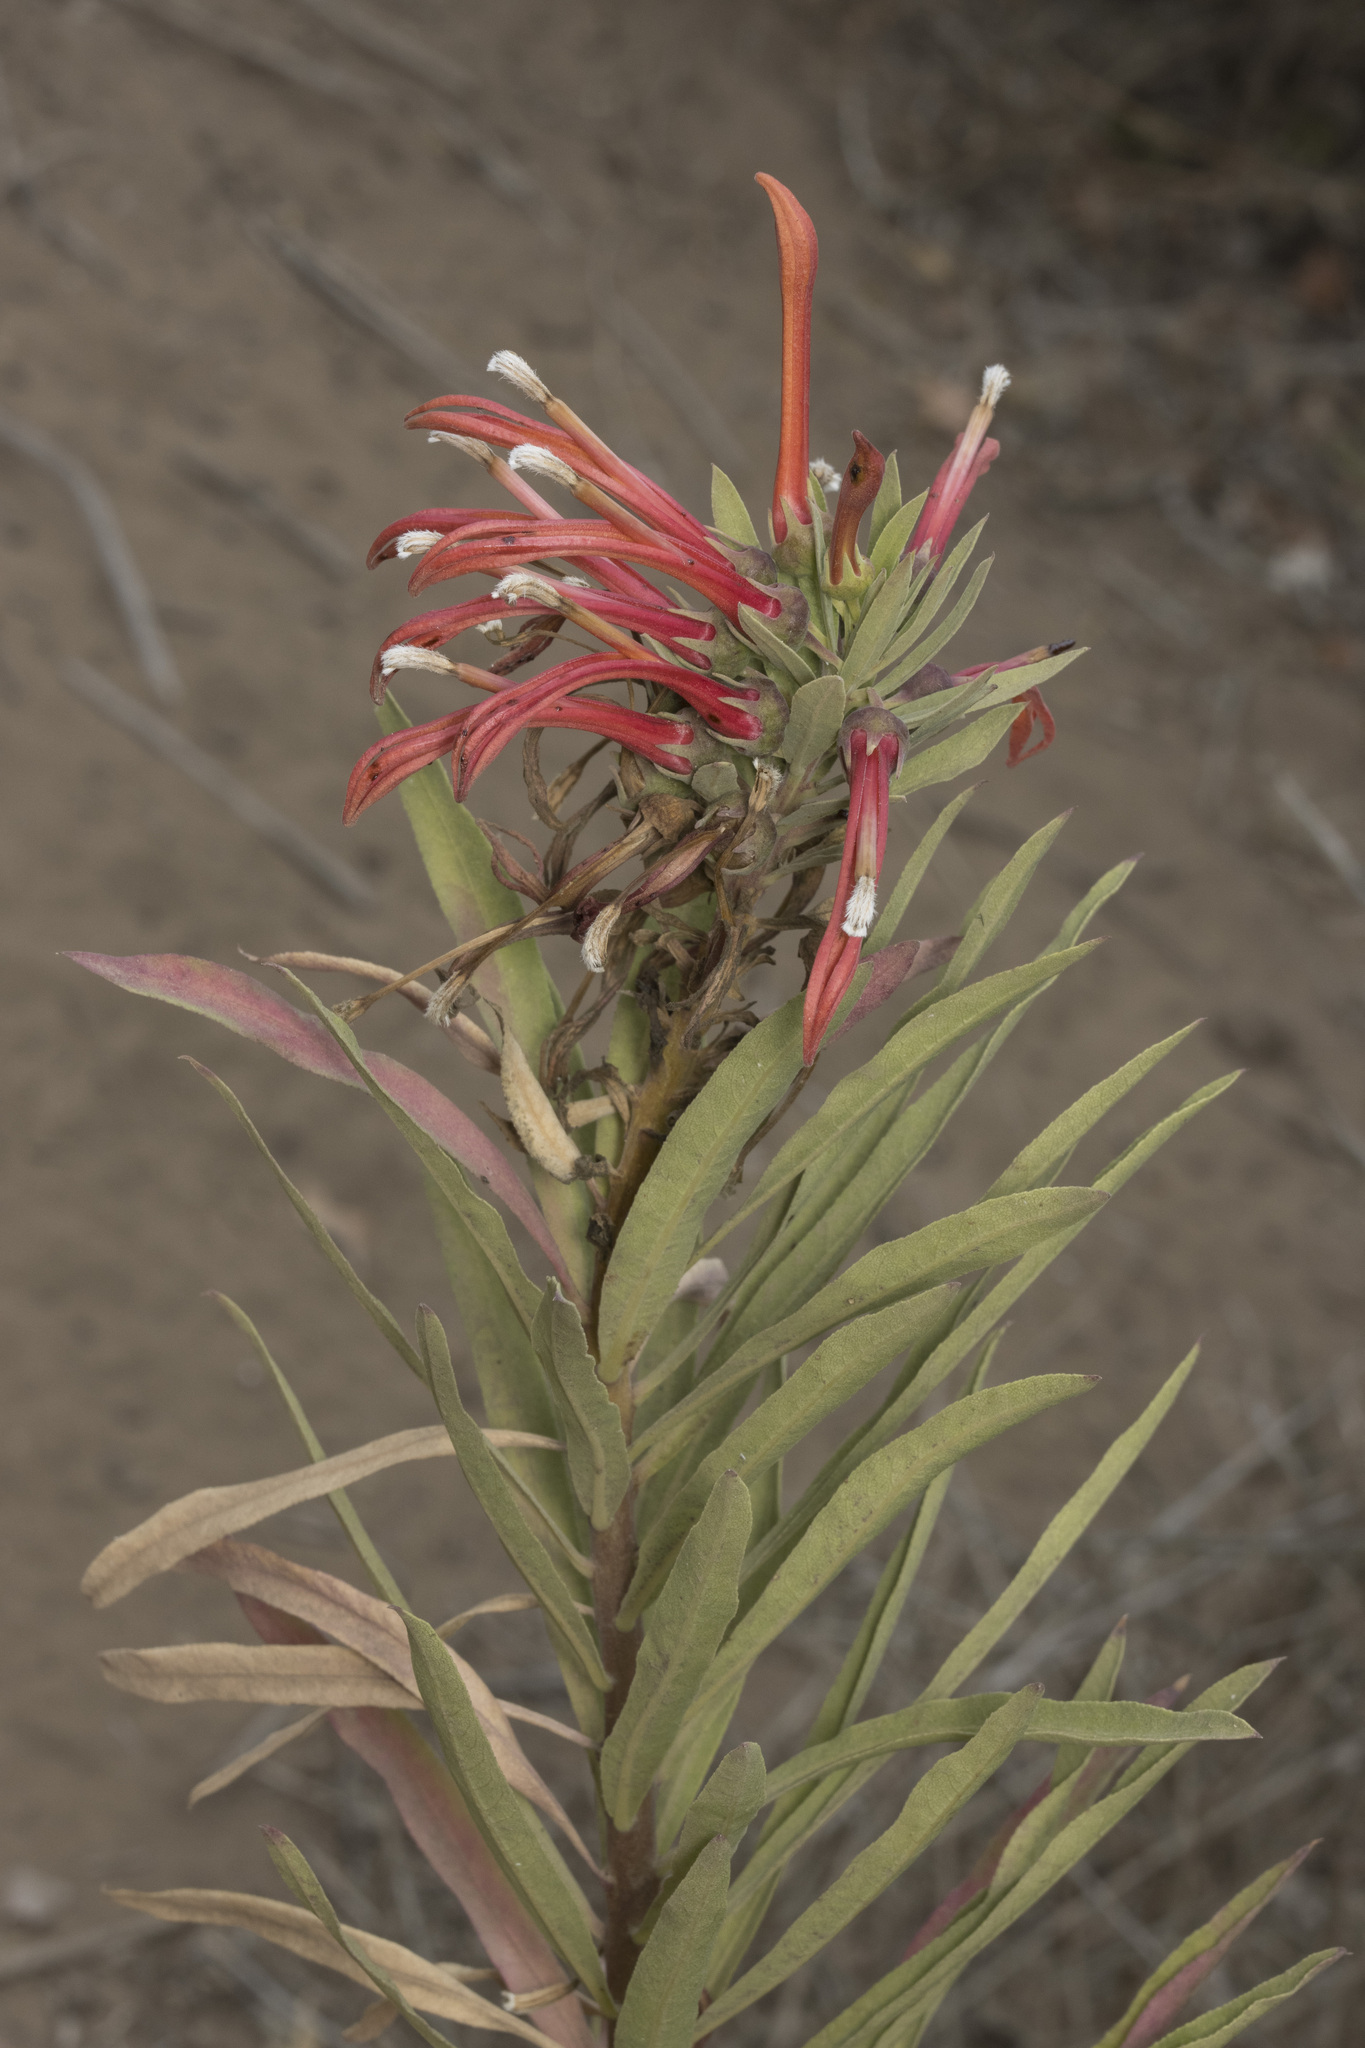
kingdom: Plantae
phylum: Tracheophyta
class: Magnoliopsida
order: Asterales
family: Campanulaceae
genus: Lobelia
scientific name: Lobelia excelsa
